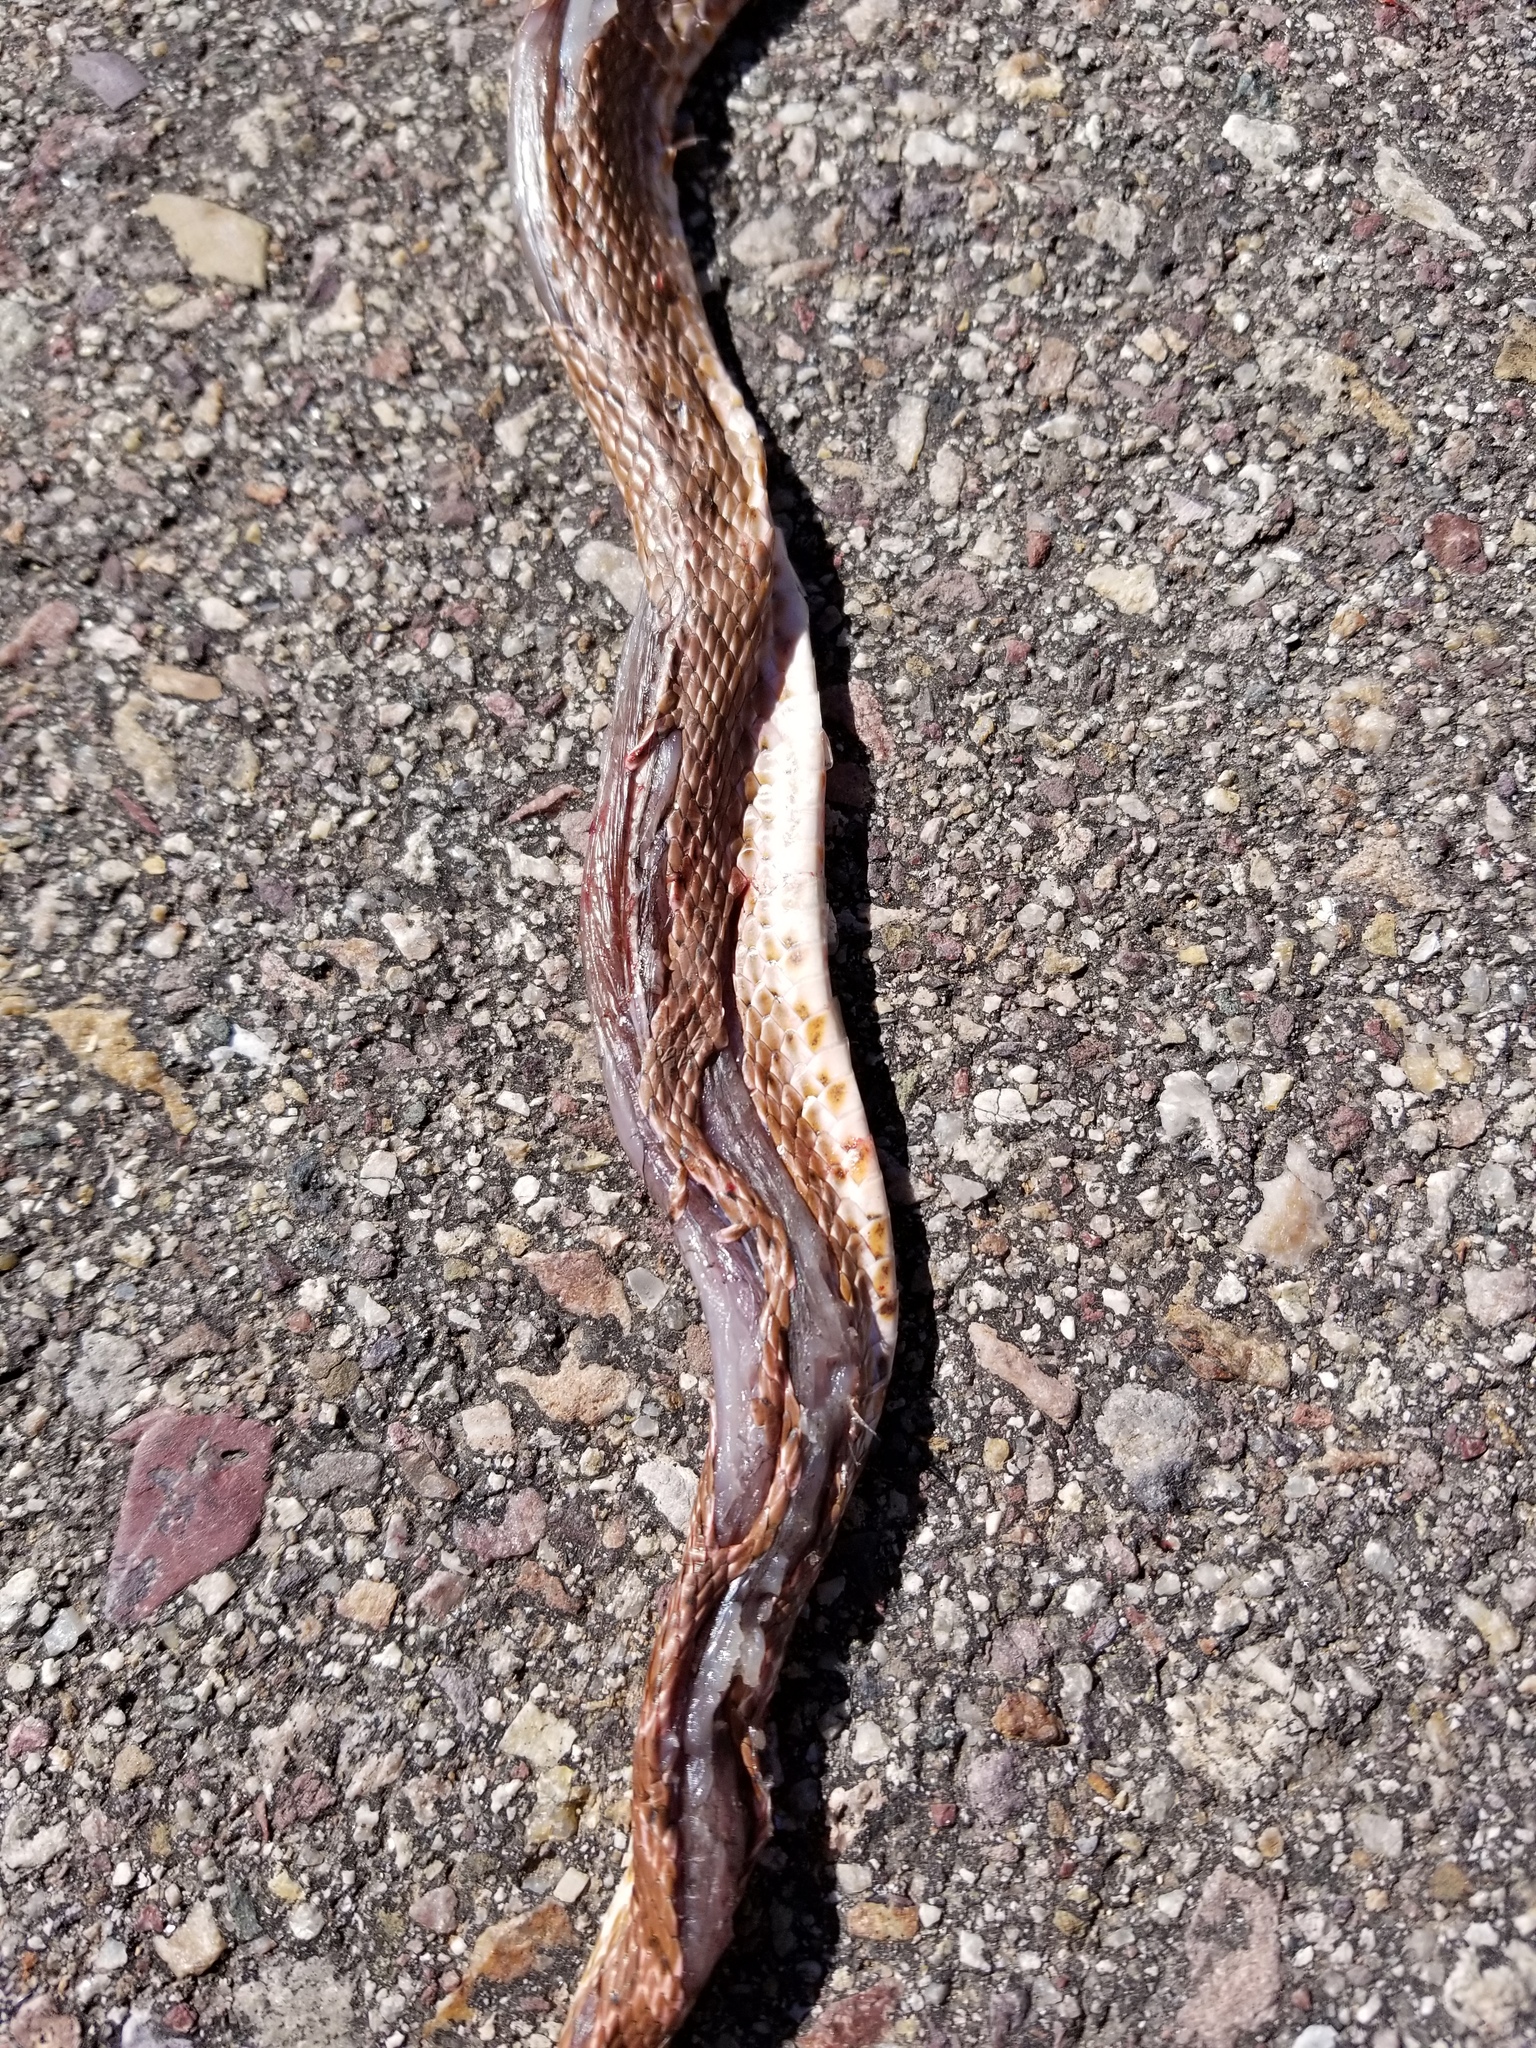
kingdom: Animalia
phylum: Chordata
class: Squamata
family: Colubridae
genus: Masticophis
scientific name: Masticophis flagellum
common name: Coachwhip
